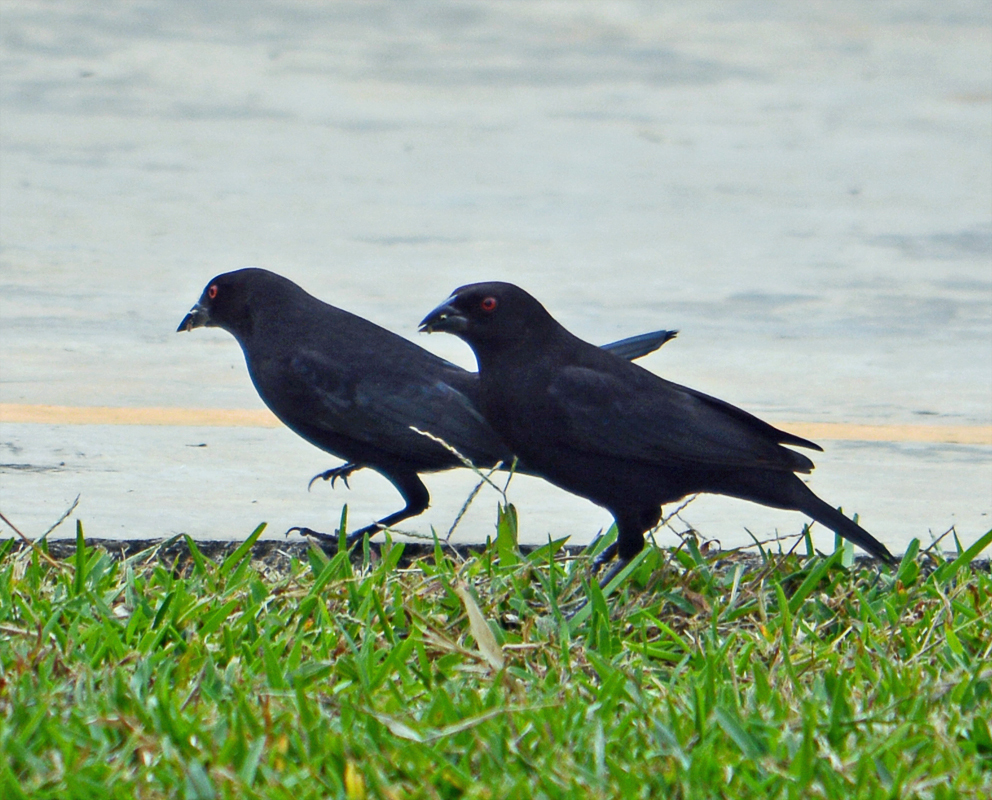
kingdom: Animalia
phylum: Chordata
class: Aves
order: Passeriformes
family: Icteridae
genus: Molothrus
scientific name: Molothrus aeneus
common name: Bronzed cowbird
